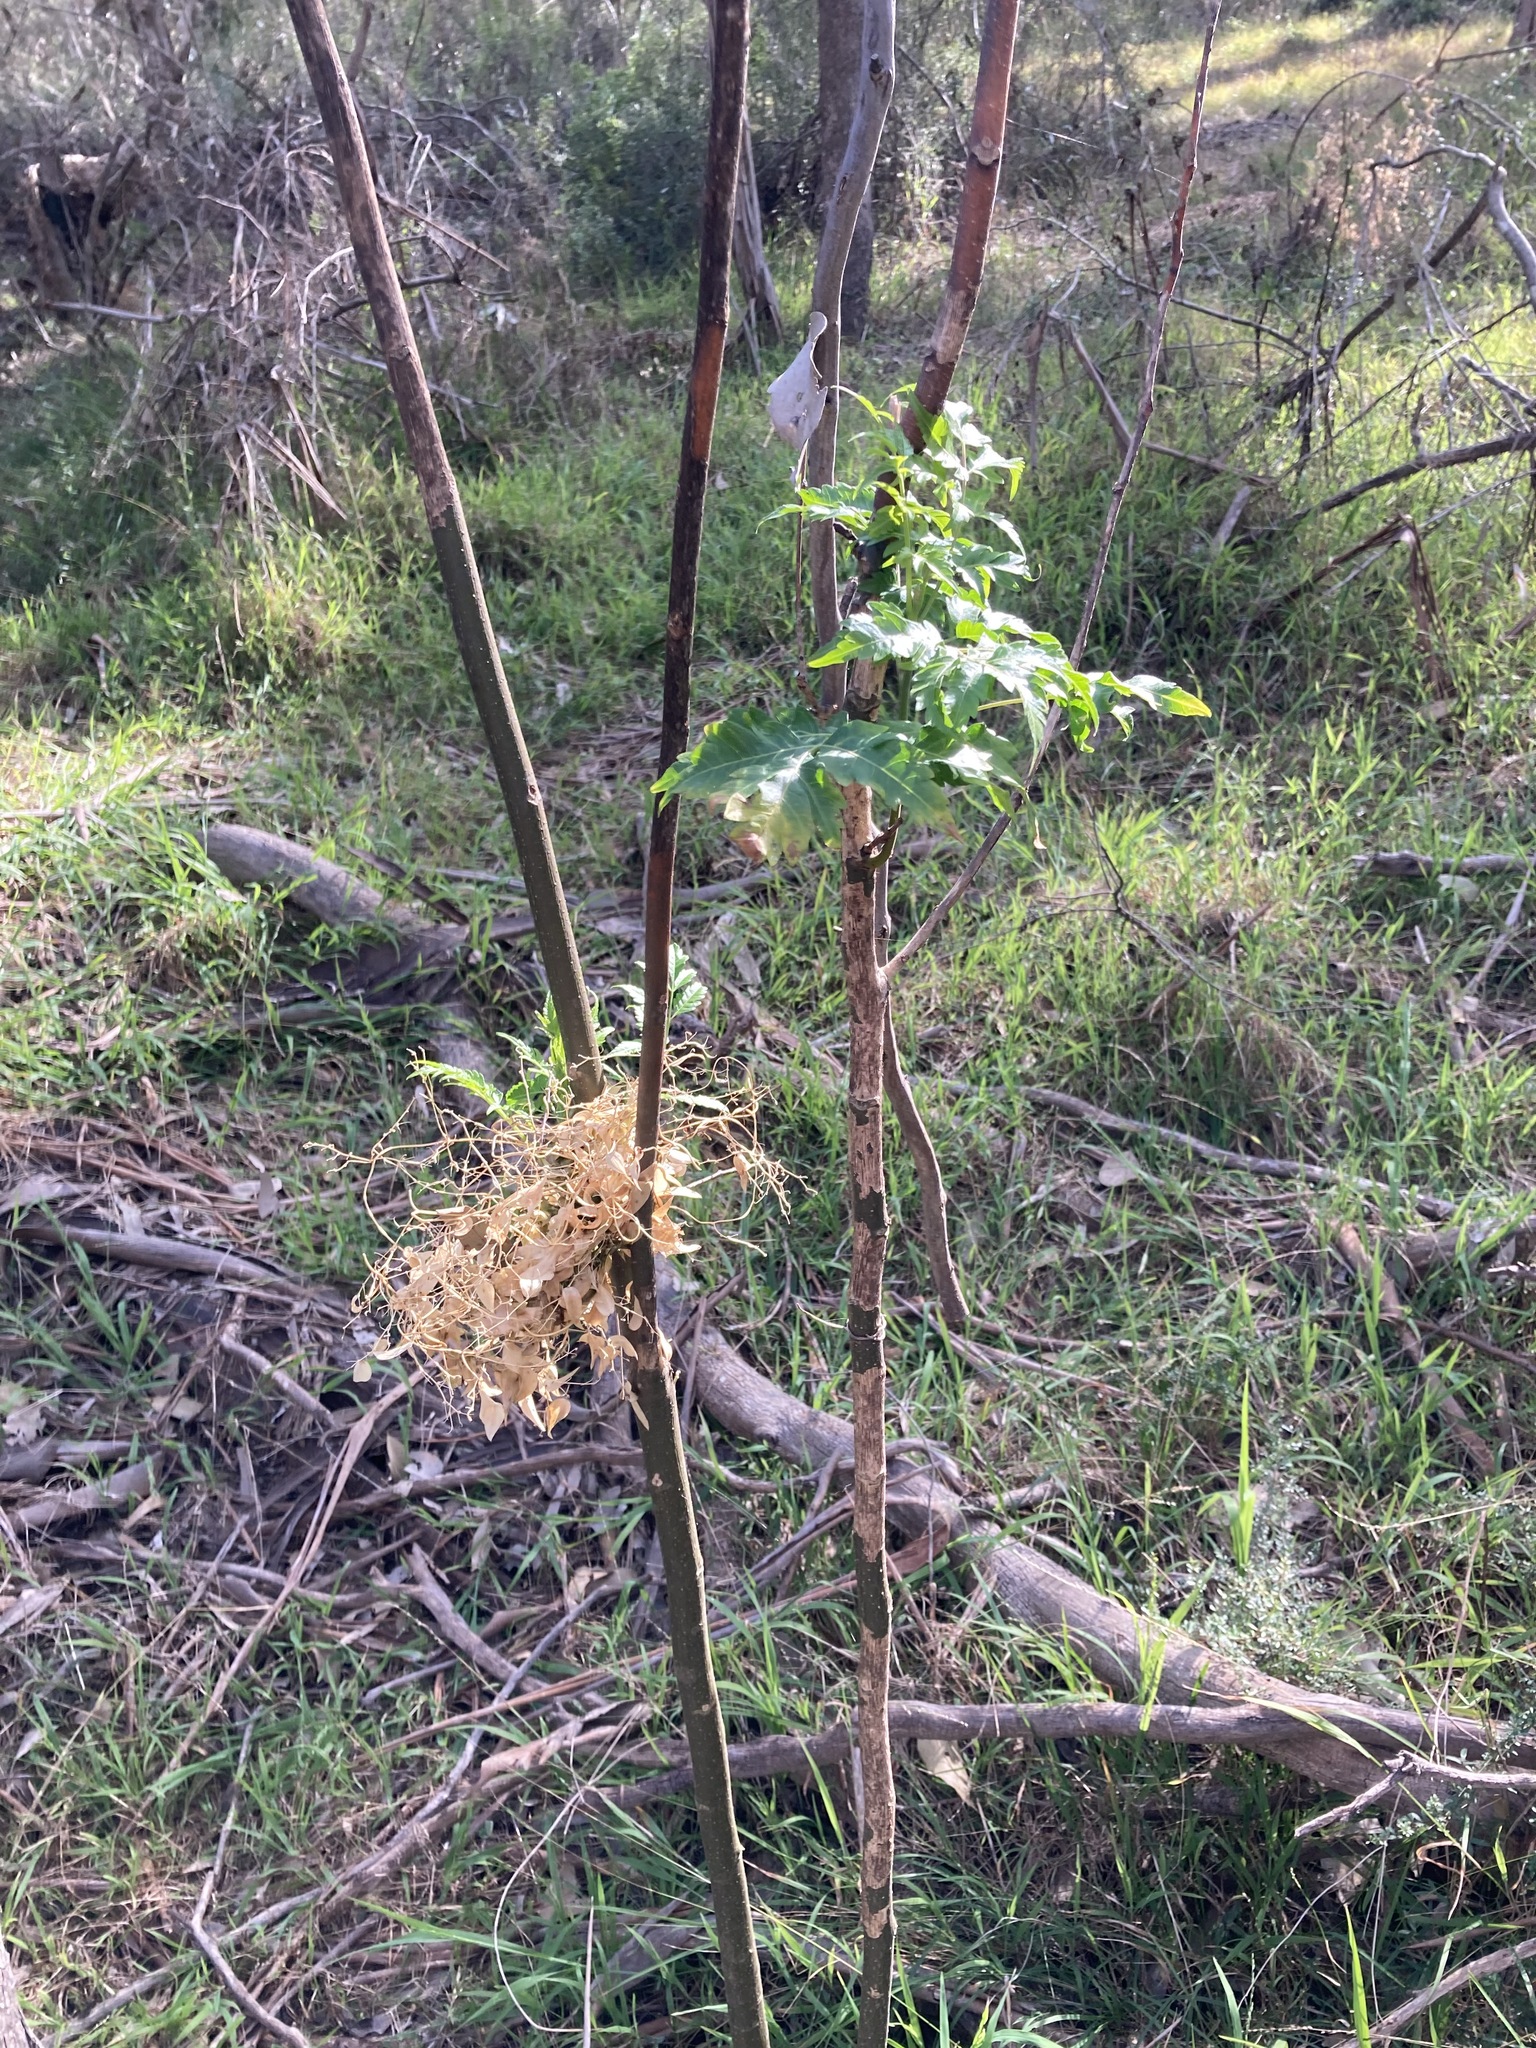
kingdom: Plantae
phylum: Tracheophyta
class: Magnoliopsida
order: Sapindales
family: Meliaceae
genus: Melia
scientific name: Melia azedarach
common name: Chinaberrytree
